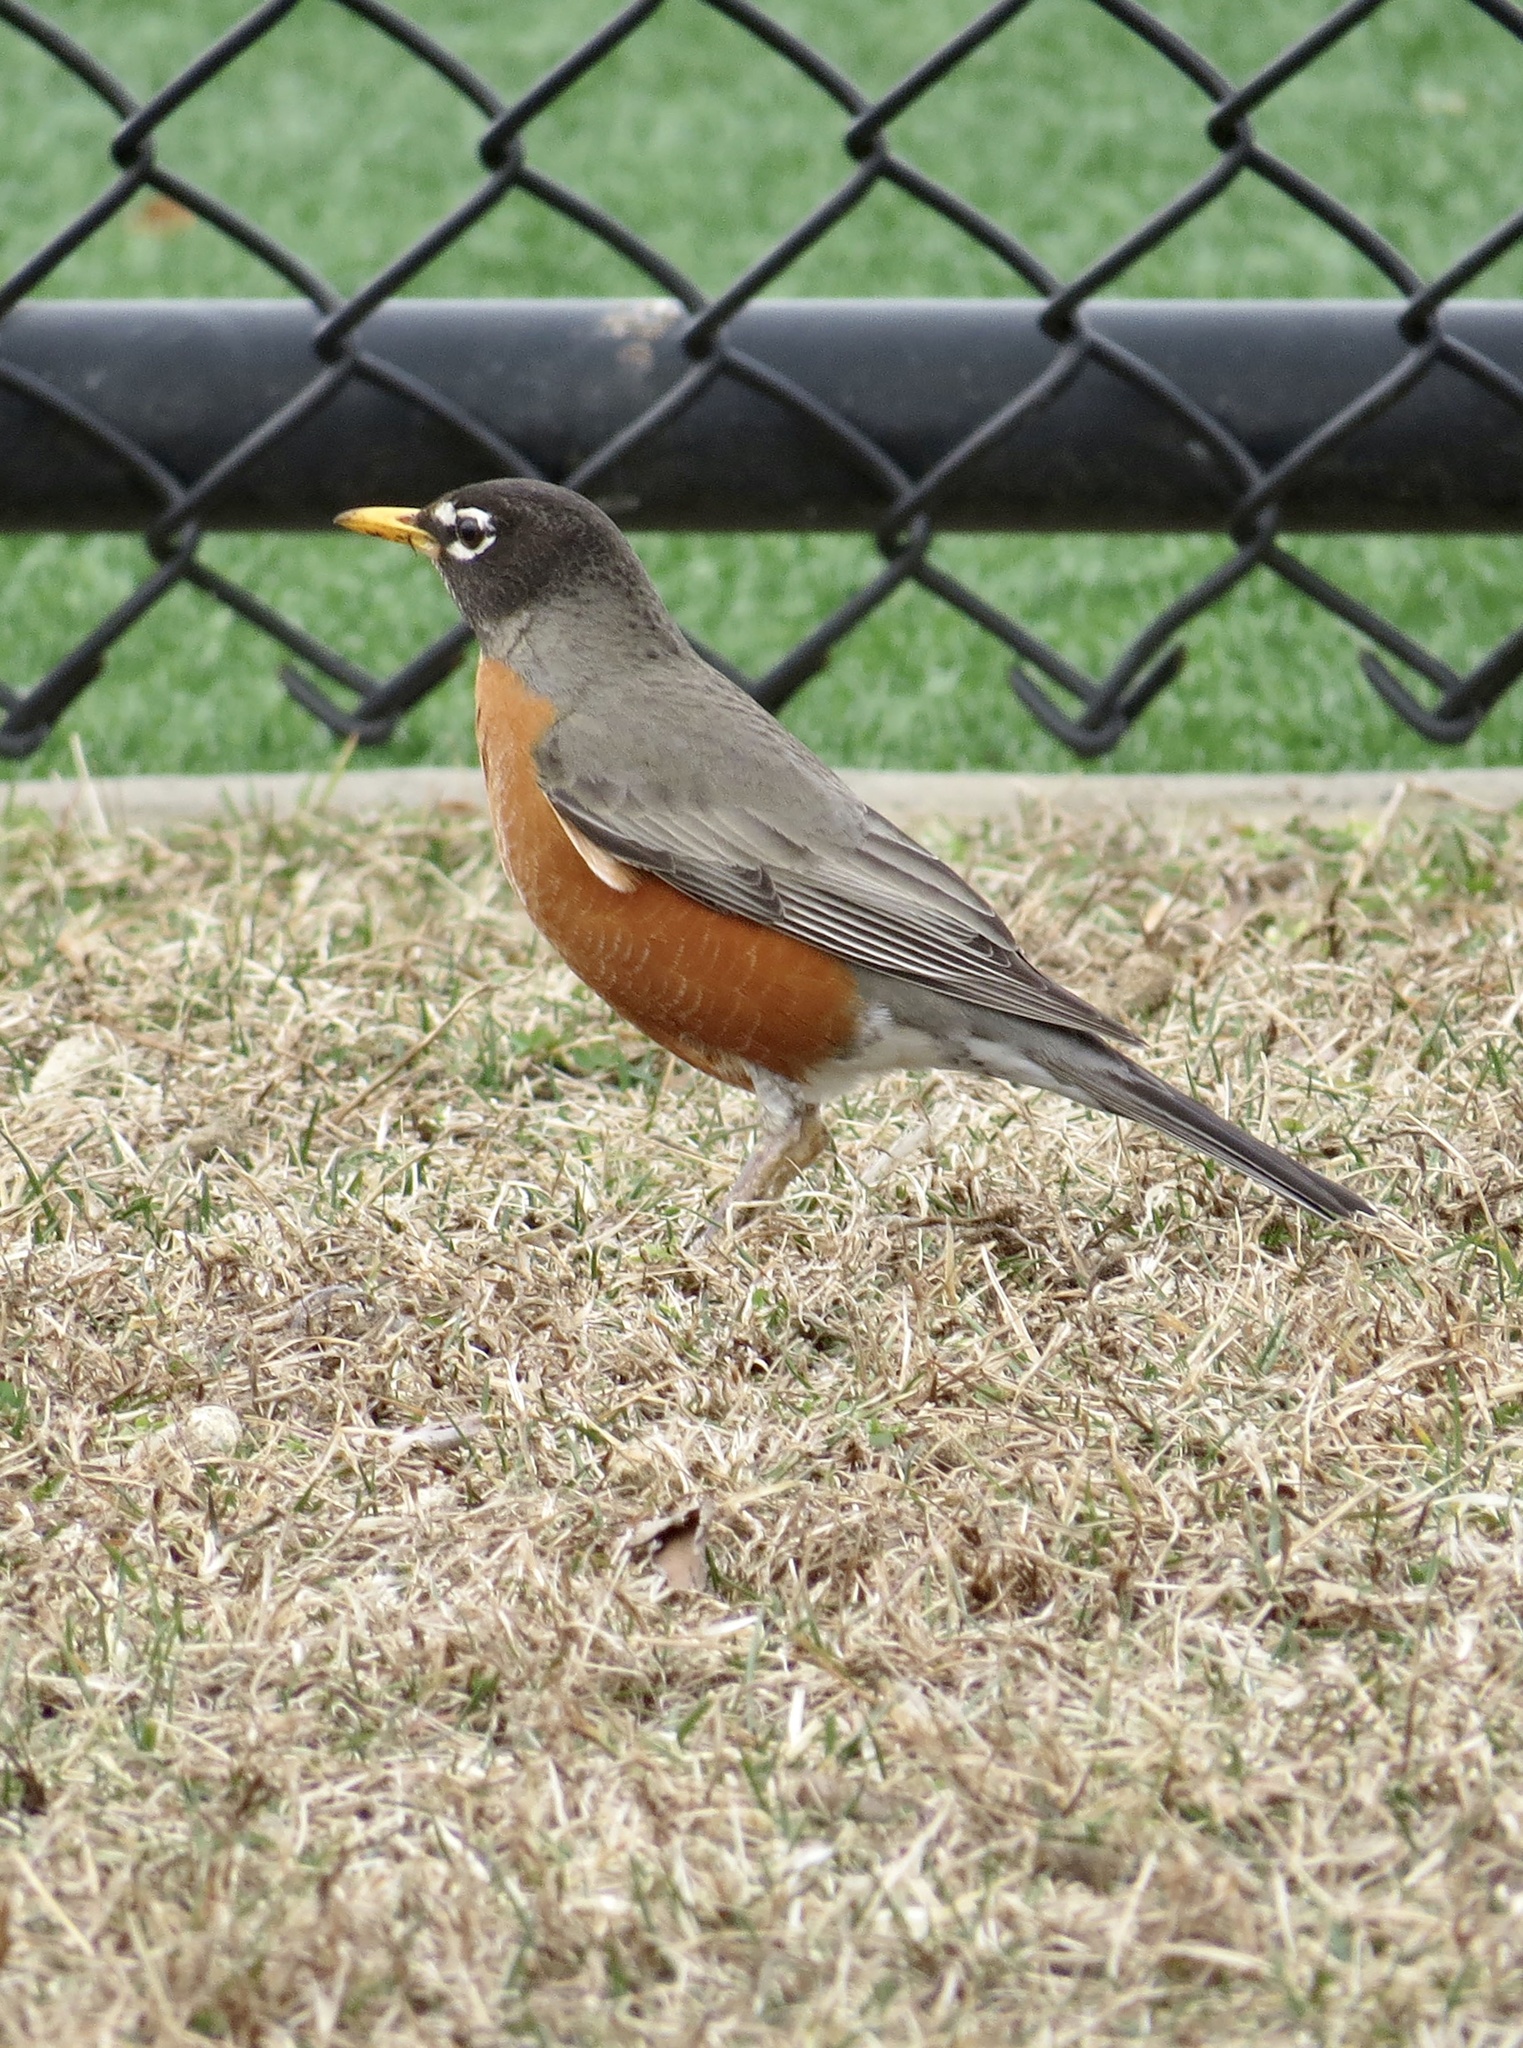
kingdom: Animalia
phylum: Chordata
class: Aves
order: Passeriformes
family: Turdidae
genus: Turdus
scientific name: Turdus migratorius
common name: American robin
